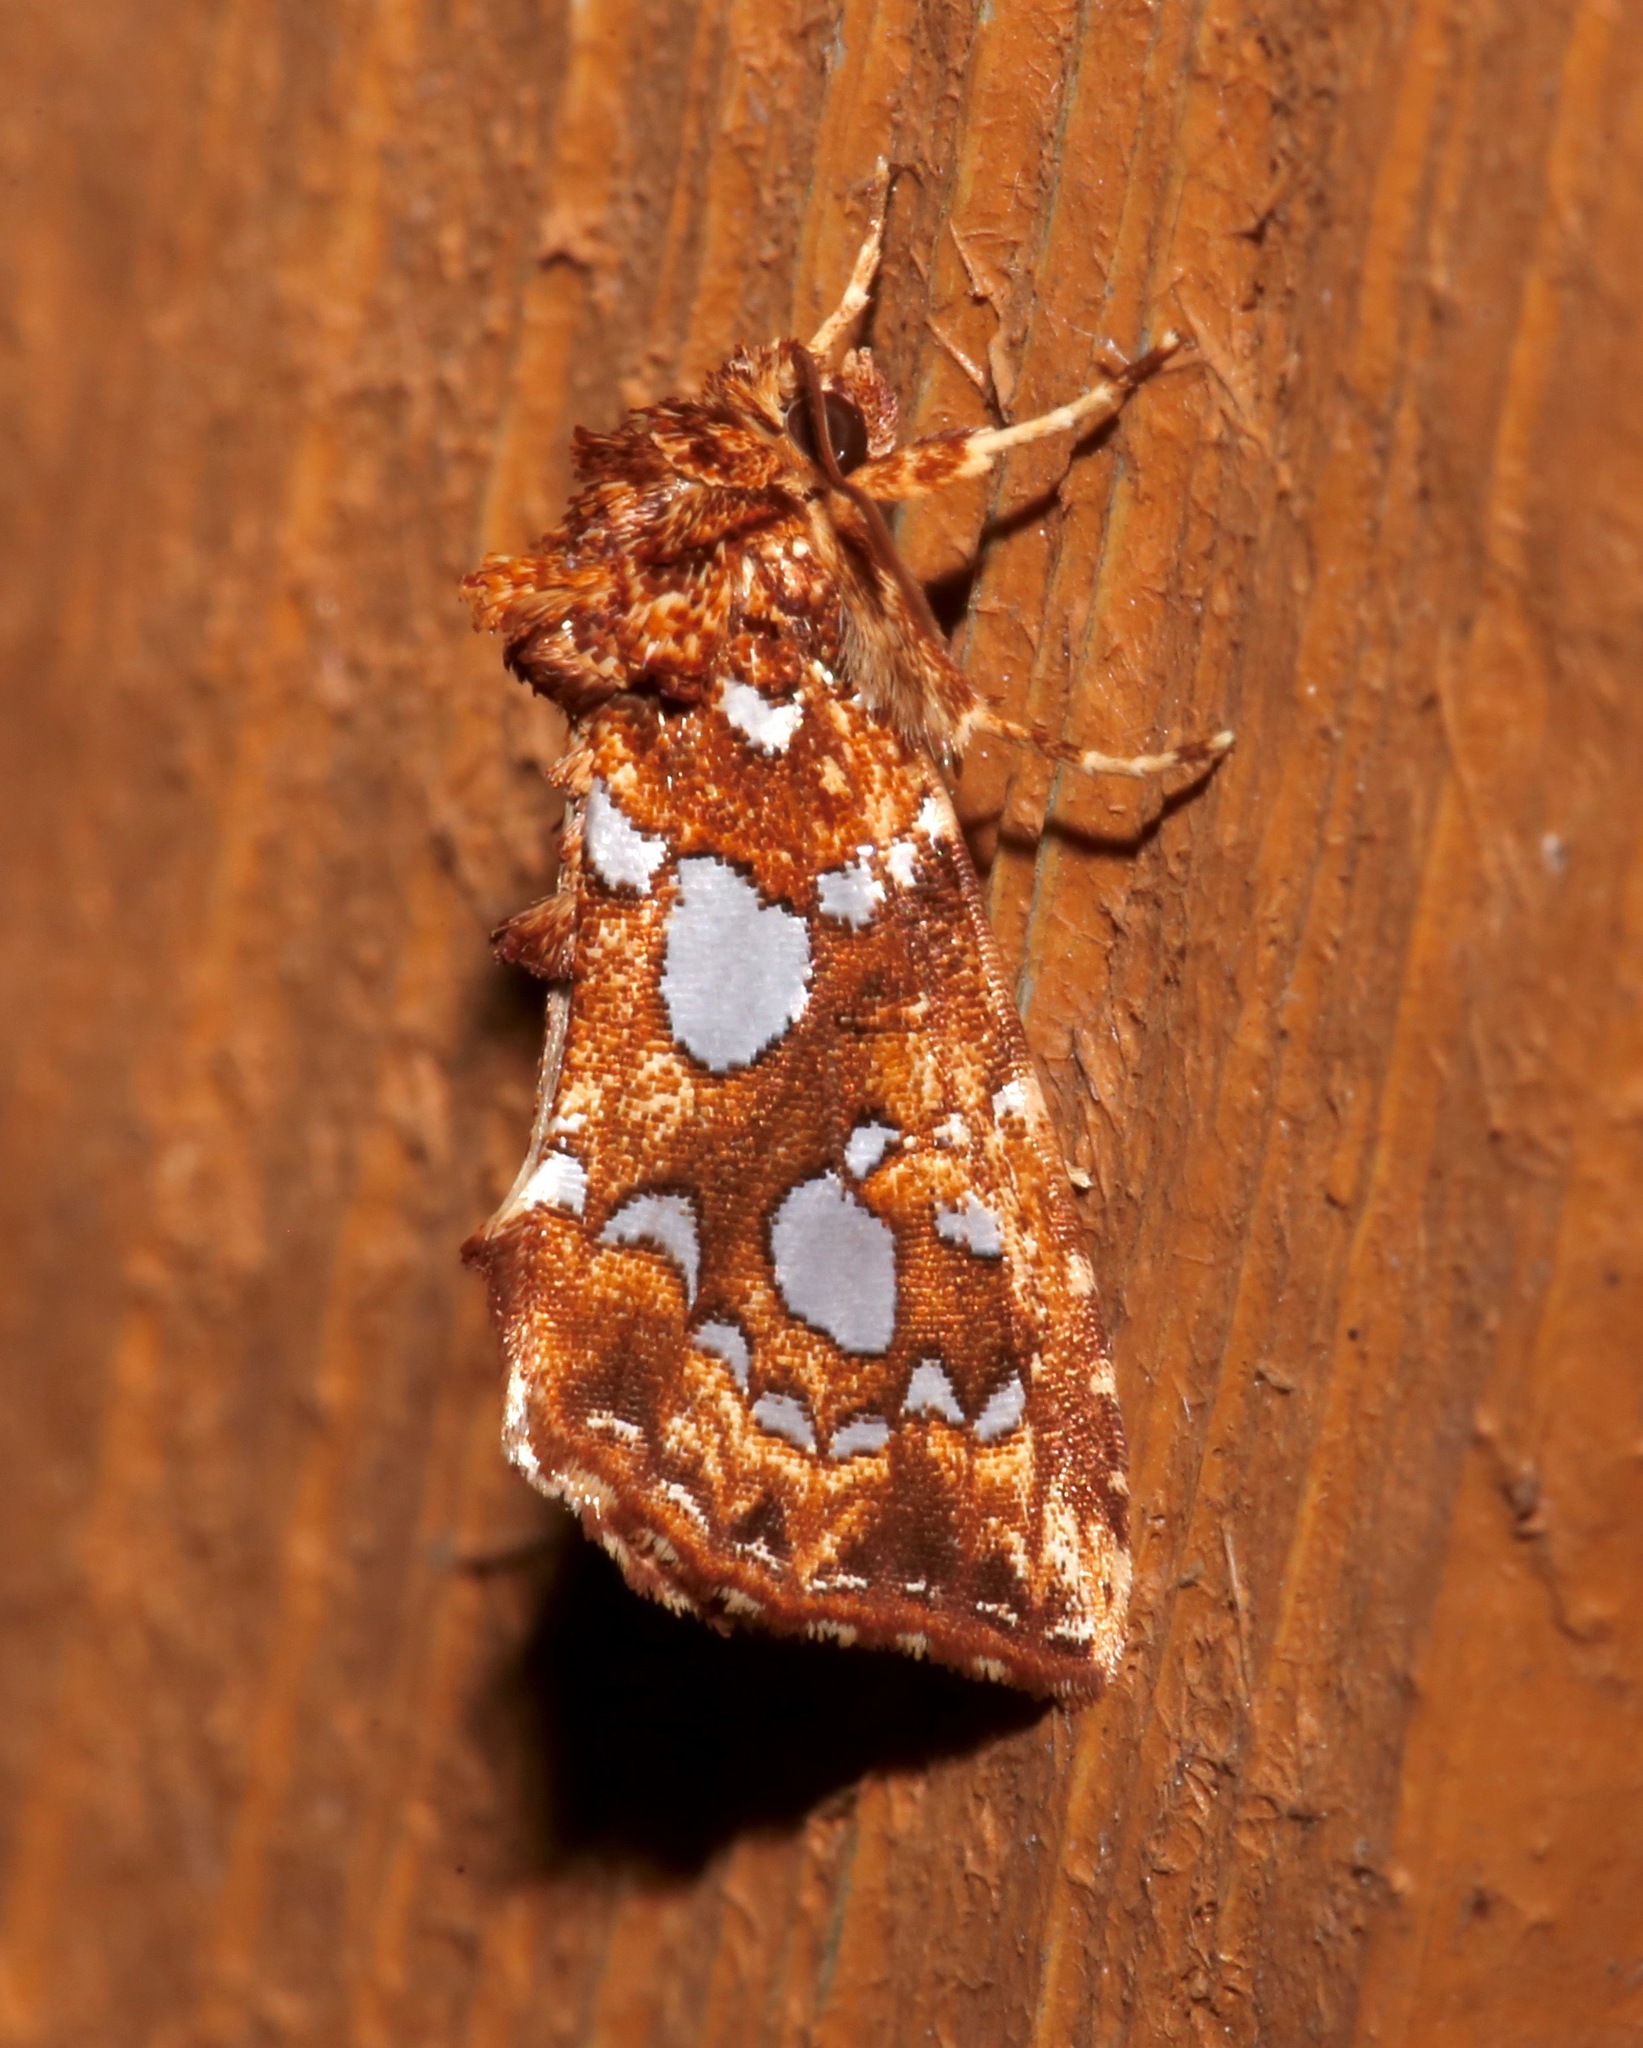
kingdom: Animalia
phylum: Arthropoda
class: Insecta
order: Lepidoptera
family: Noctuidae
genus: Callopistria
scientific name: Callopistria cordata
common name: Silver-spotted fern moth
